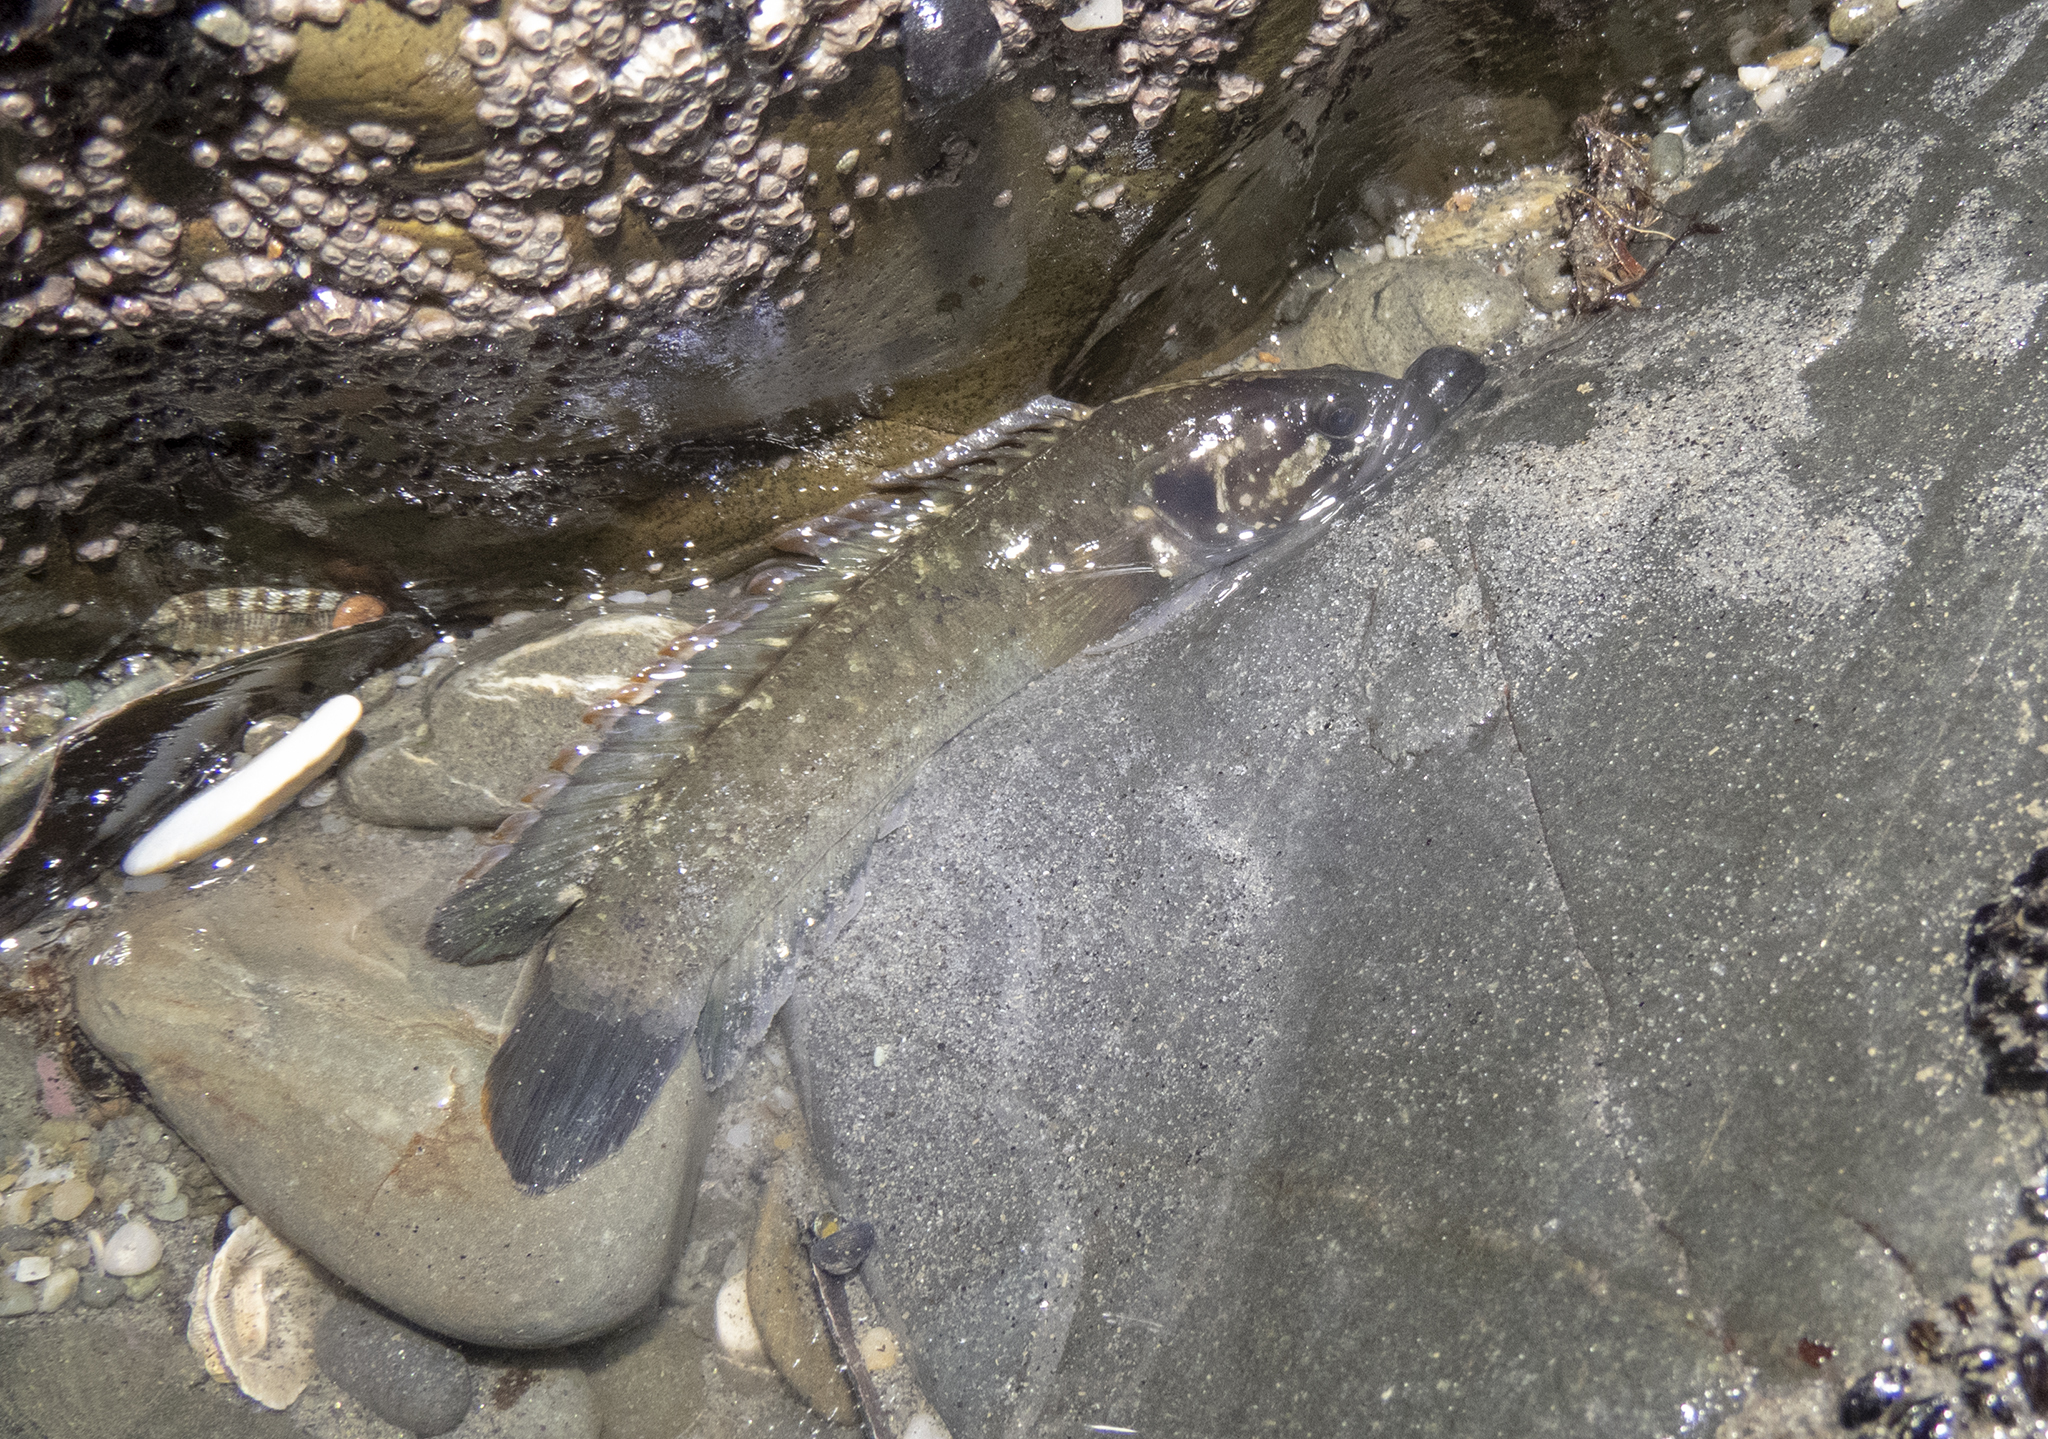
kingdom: Animalia
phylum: Chordata
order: Perciformes
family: Plesiopidae
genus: Acanthoclinus
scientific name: Acanthoclinus fuscus
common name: Olive rockfish
